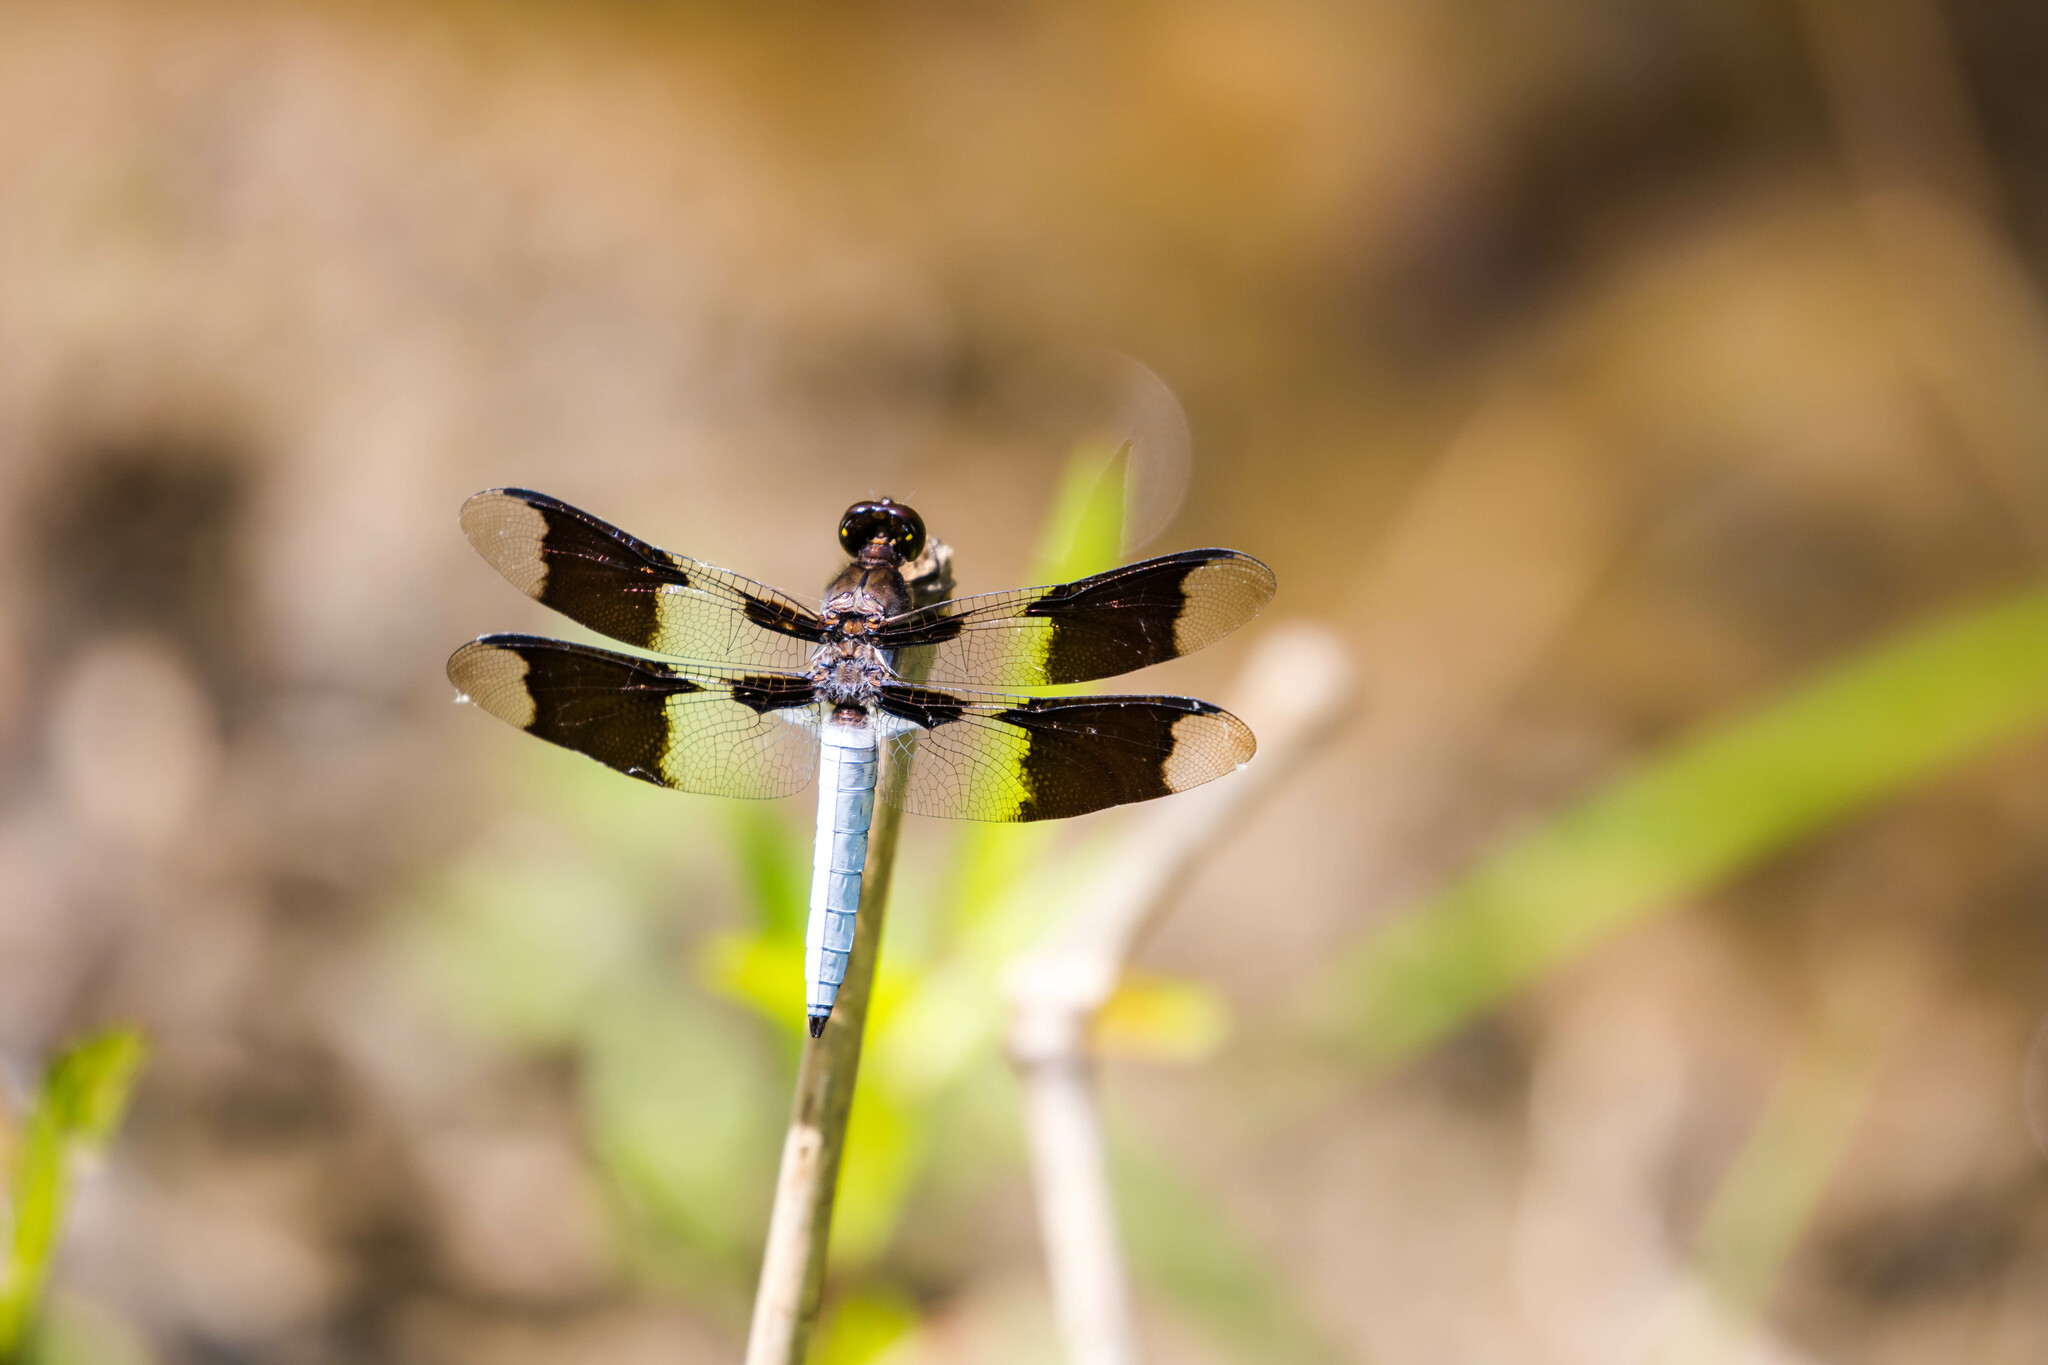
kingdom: Animalia
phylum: Arthropoda
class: Insecta
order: Odonata
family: Libellulidae
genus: Plathemis
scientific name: Plathemis lydia
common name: Common whitetail
